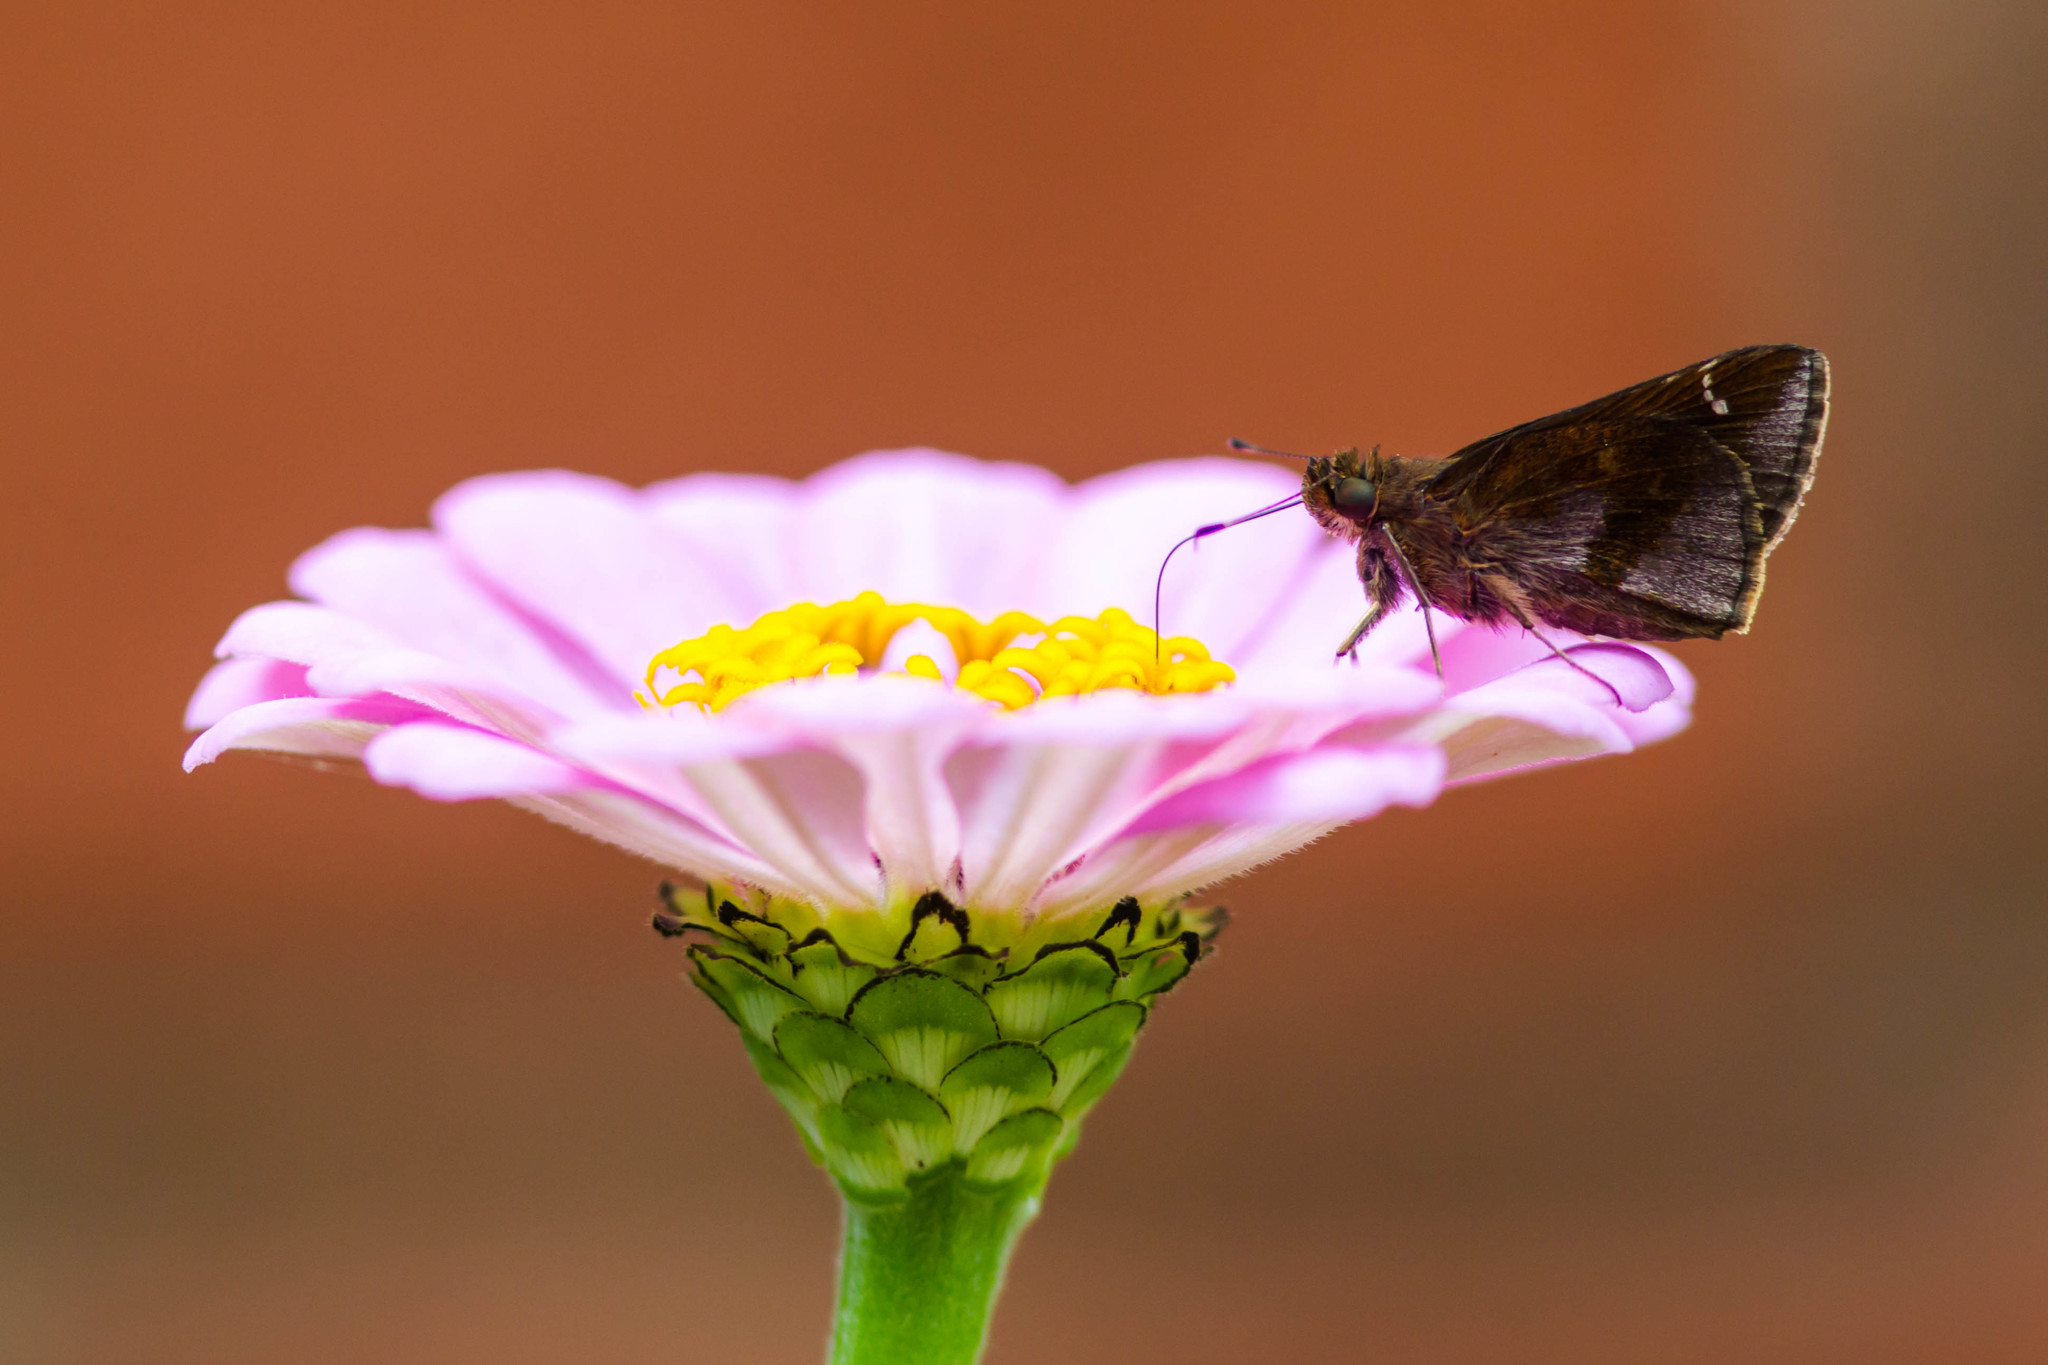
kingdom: Animalia
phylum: Arthropoda
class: Insecta
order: Lepidoptera
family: Hesperiidae
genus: Lerema
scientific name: Lerema accius
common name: Clouded skipper
